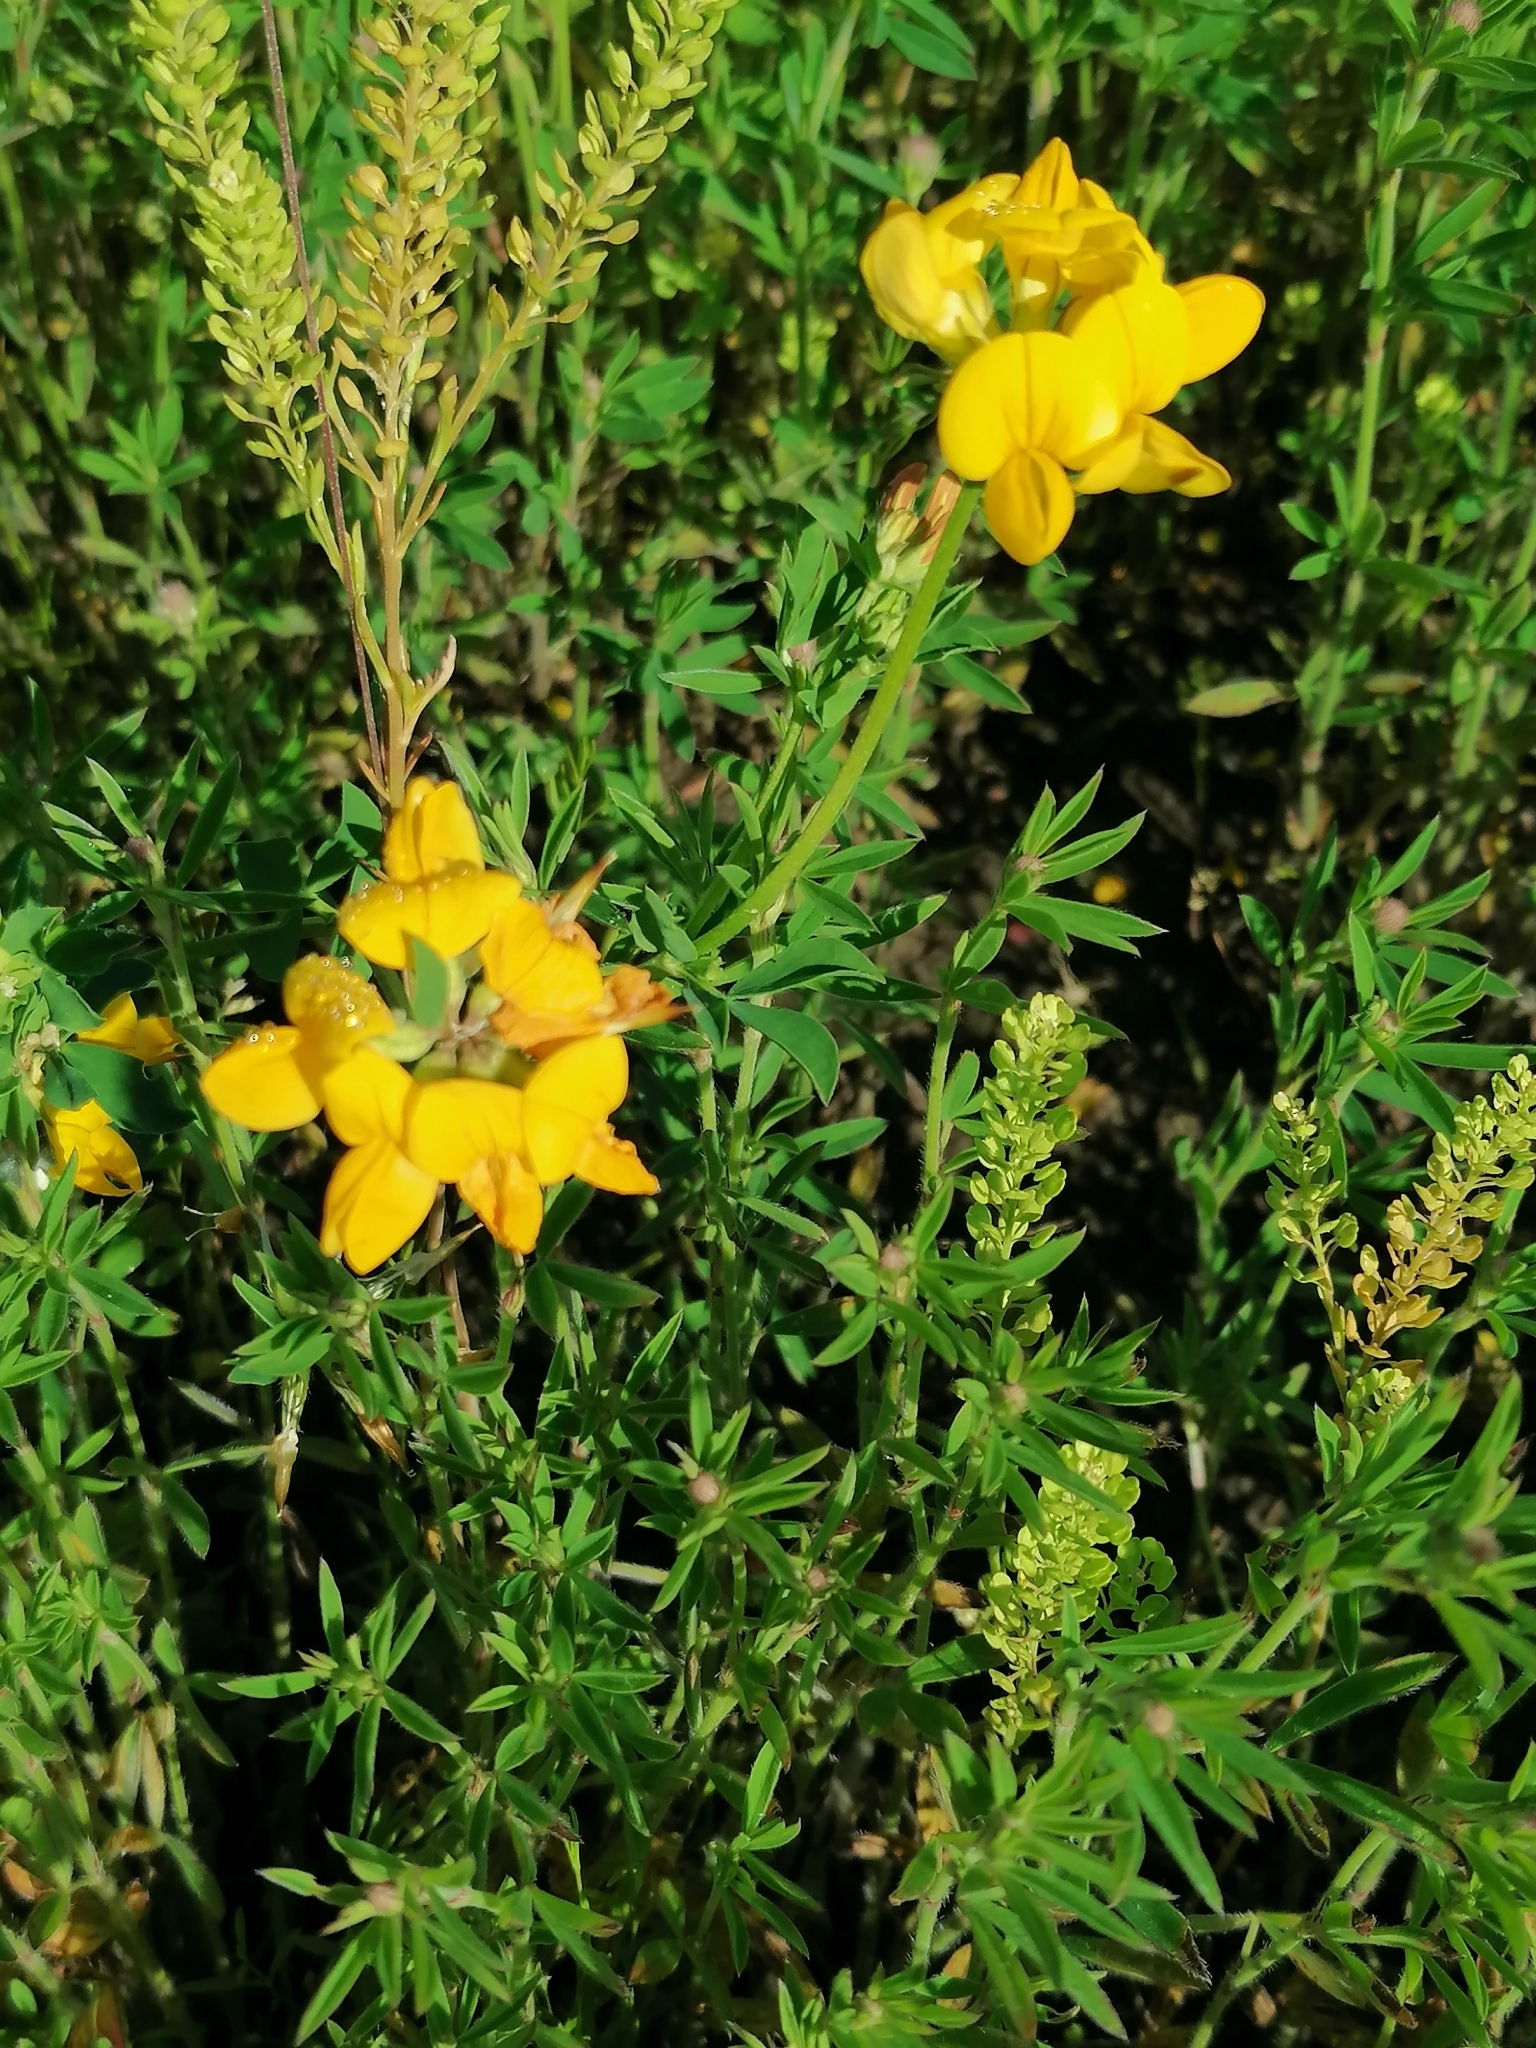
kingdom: Plantae
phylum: Tracheophyta
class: Magnoliopsida
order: Fabales
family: Fabaceae
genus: Lotus
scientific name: Lotus corniculatus
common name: Common bird's-foot-trefoil
